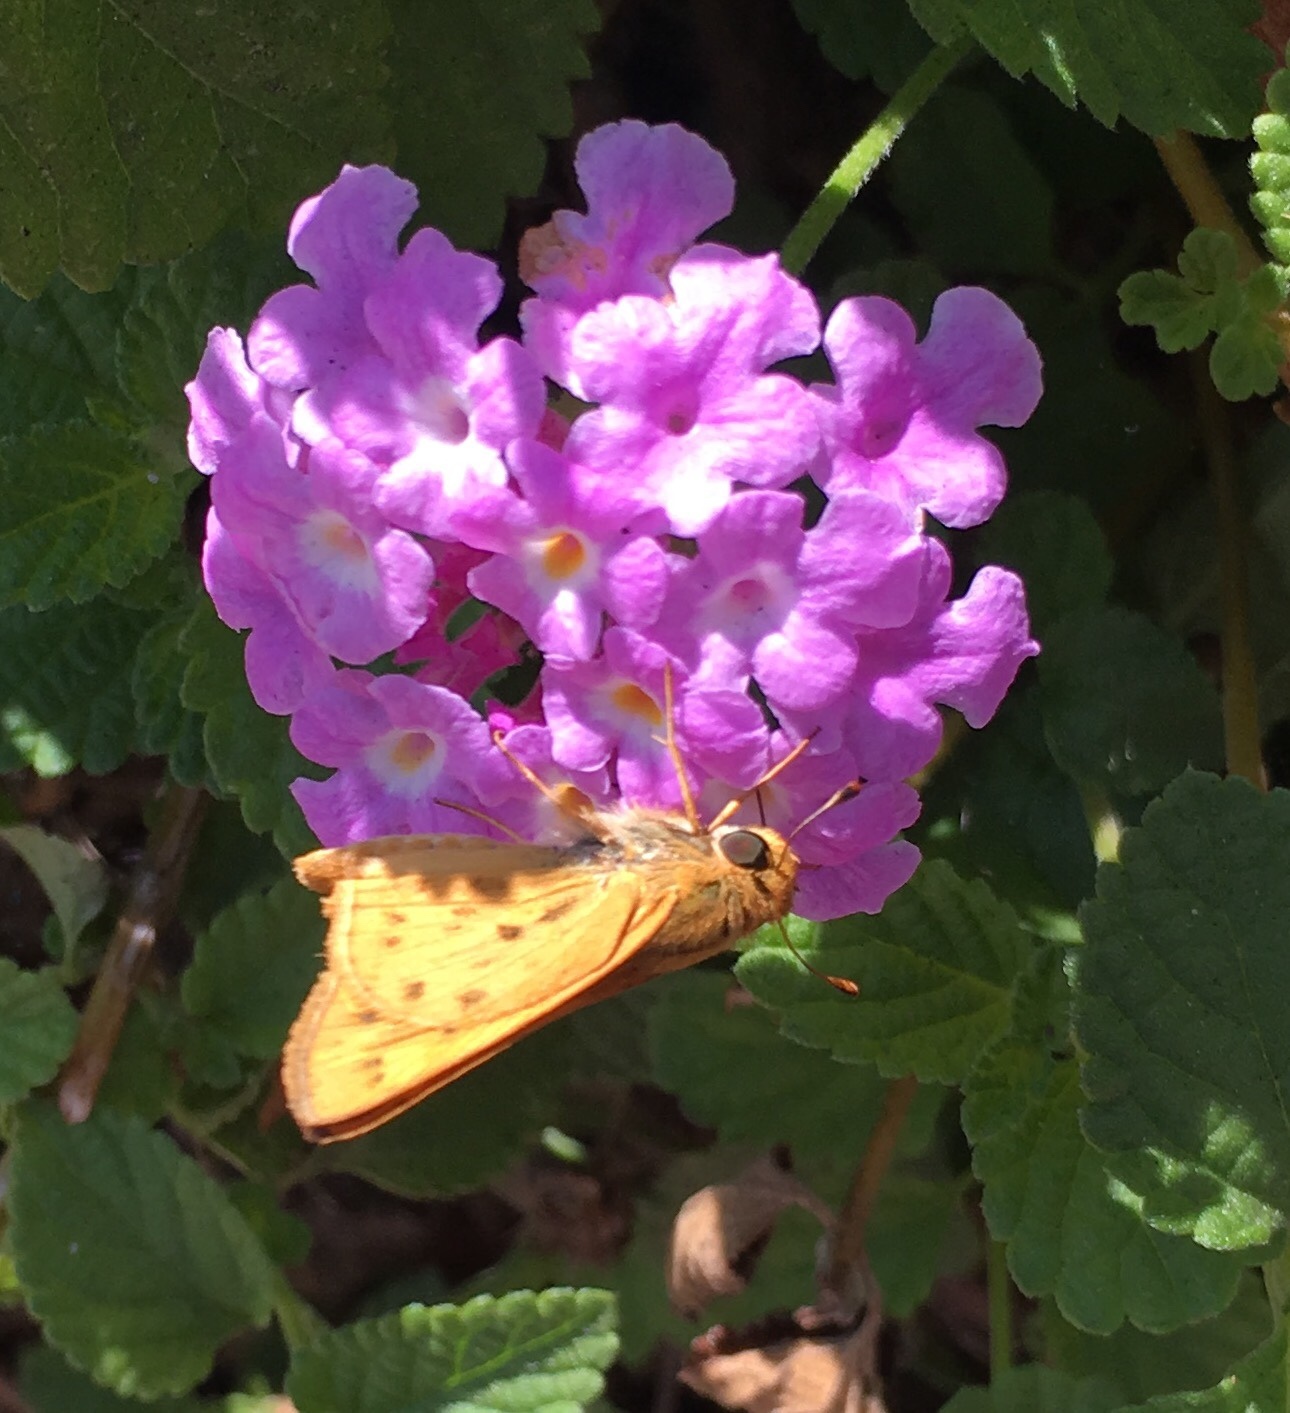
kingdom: Animalia
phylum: Arthropoda
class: Insecta
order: Lepidoptera
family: Hesperiidae
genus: Hylephila
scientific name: Hylephila phyleus
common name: Fiery skipper
